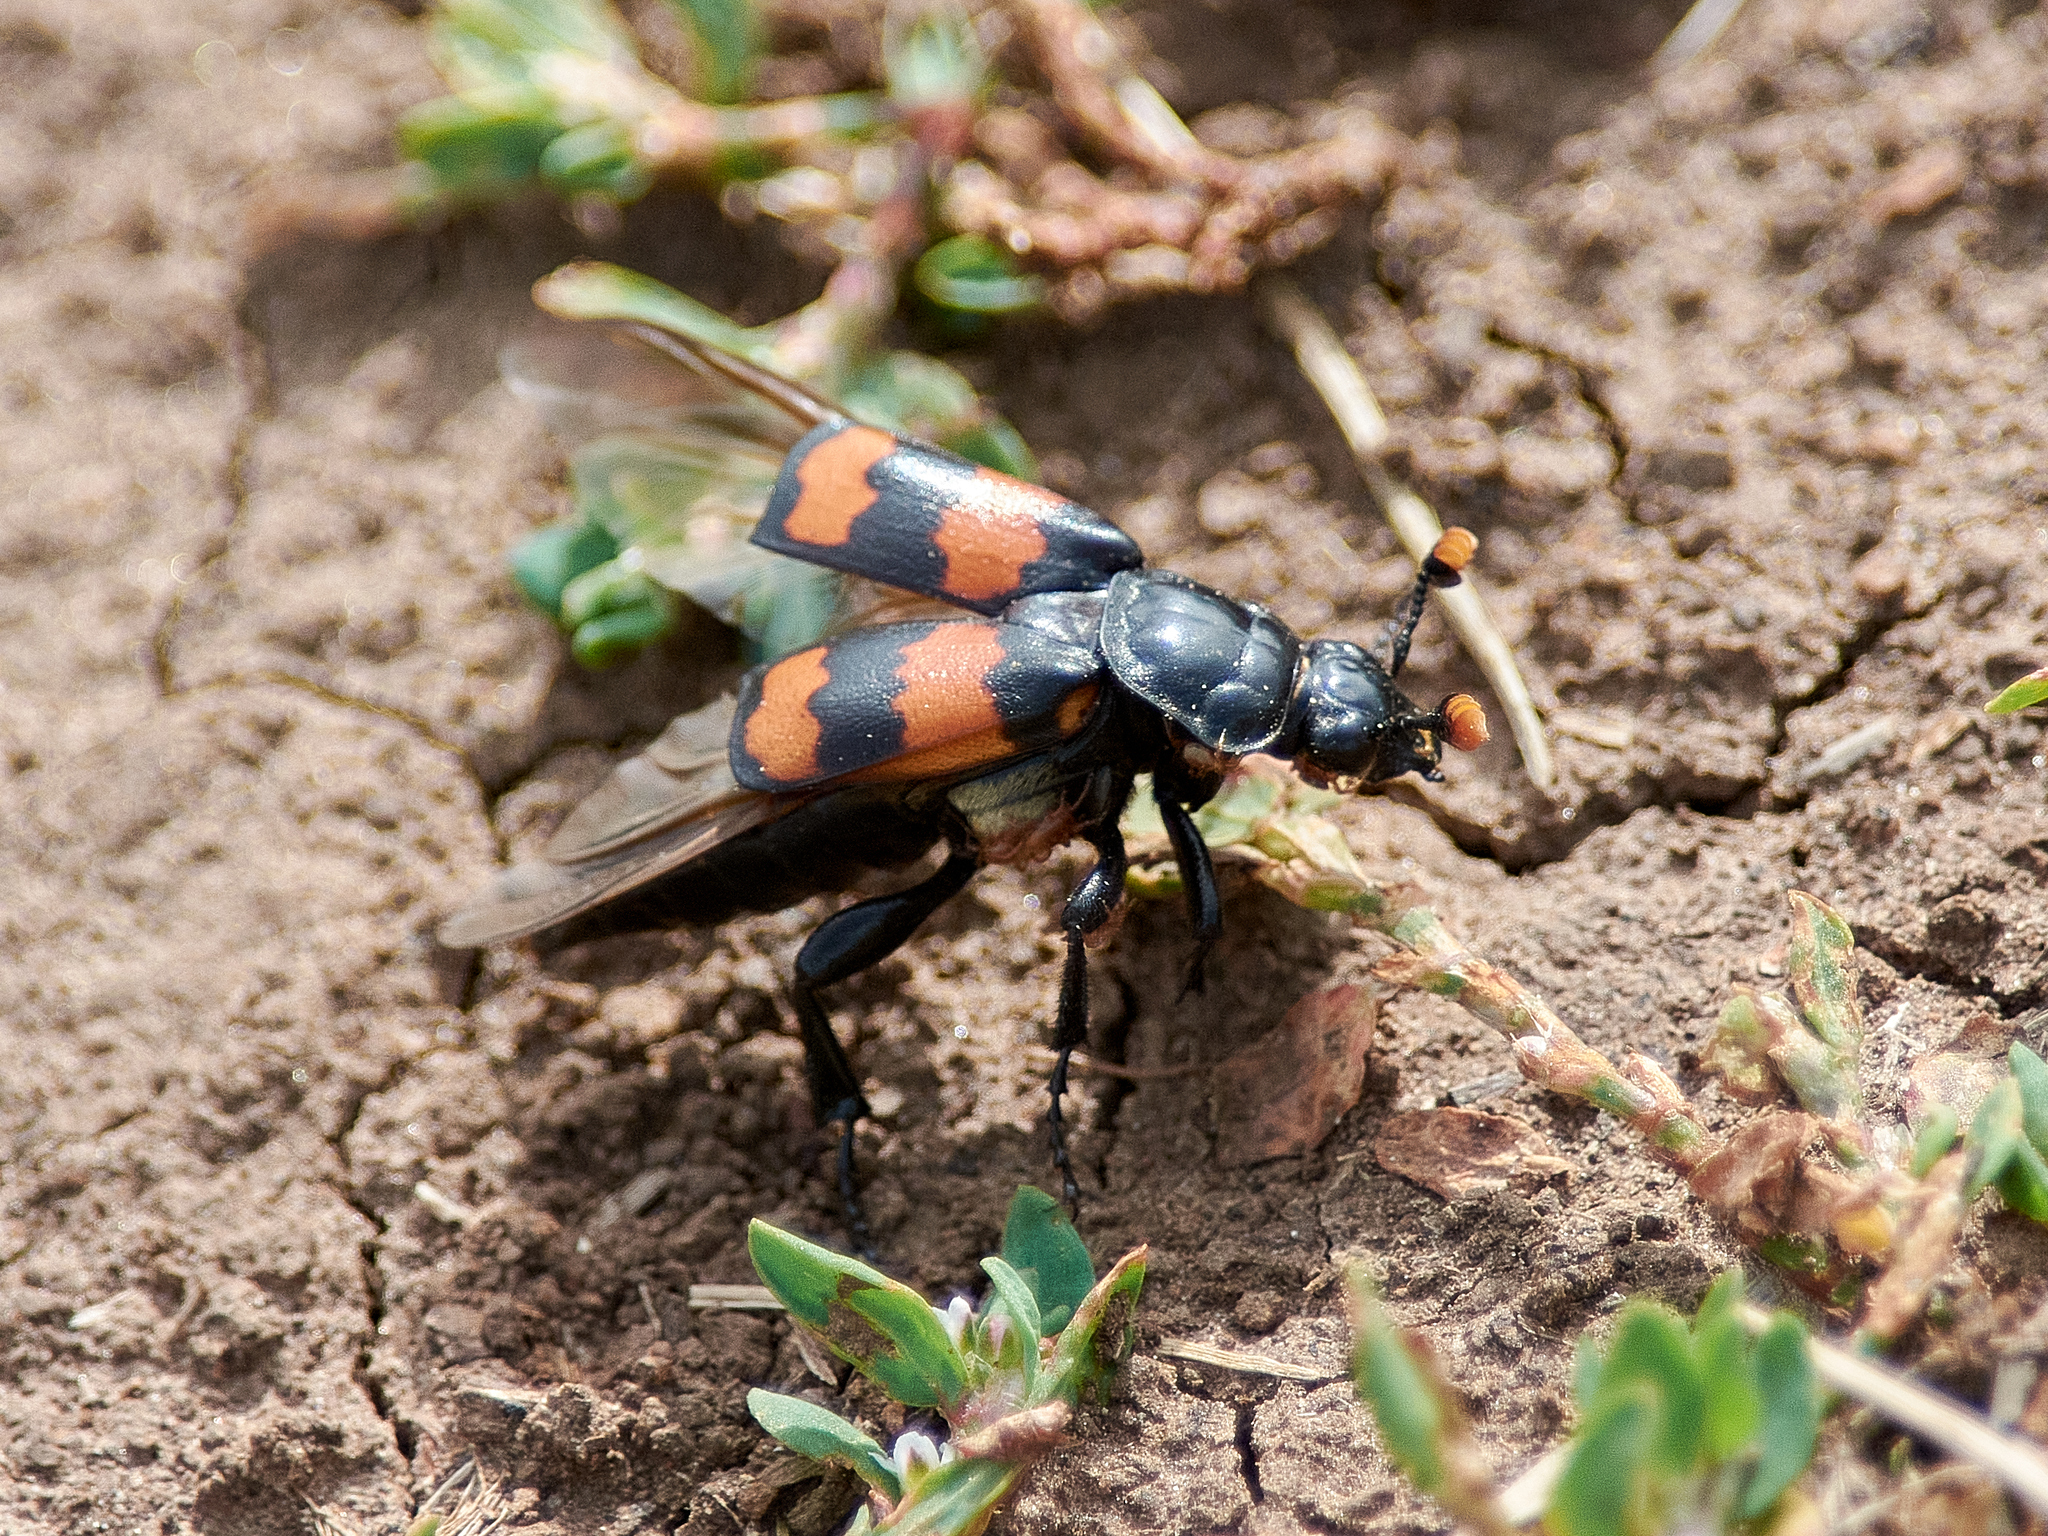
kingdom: Animalia
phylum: Arthropoda
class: Insecta
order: Coleoptera
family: Staphylinidae
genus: Nicrophorus
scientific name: Nicrophorus investigator
